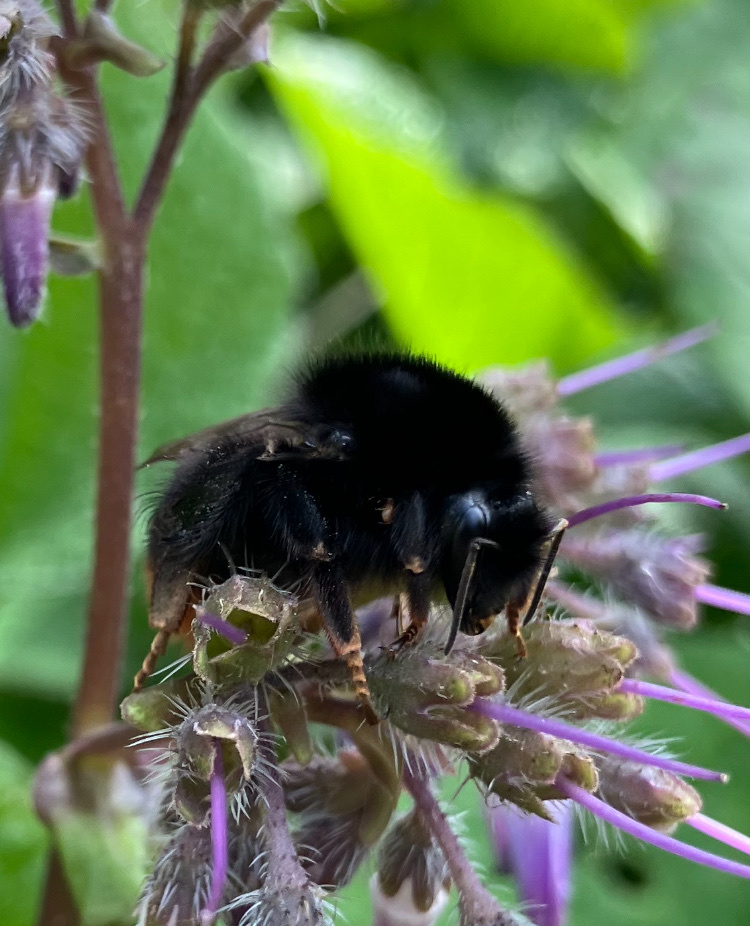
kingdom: Animalia
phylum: Arthropoda
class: Insecta
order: Hymenoptera
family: Apidae
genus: Bombus
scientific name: Bombus lapidarius
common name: Large red-tailed humble-bee
